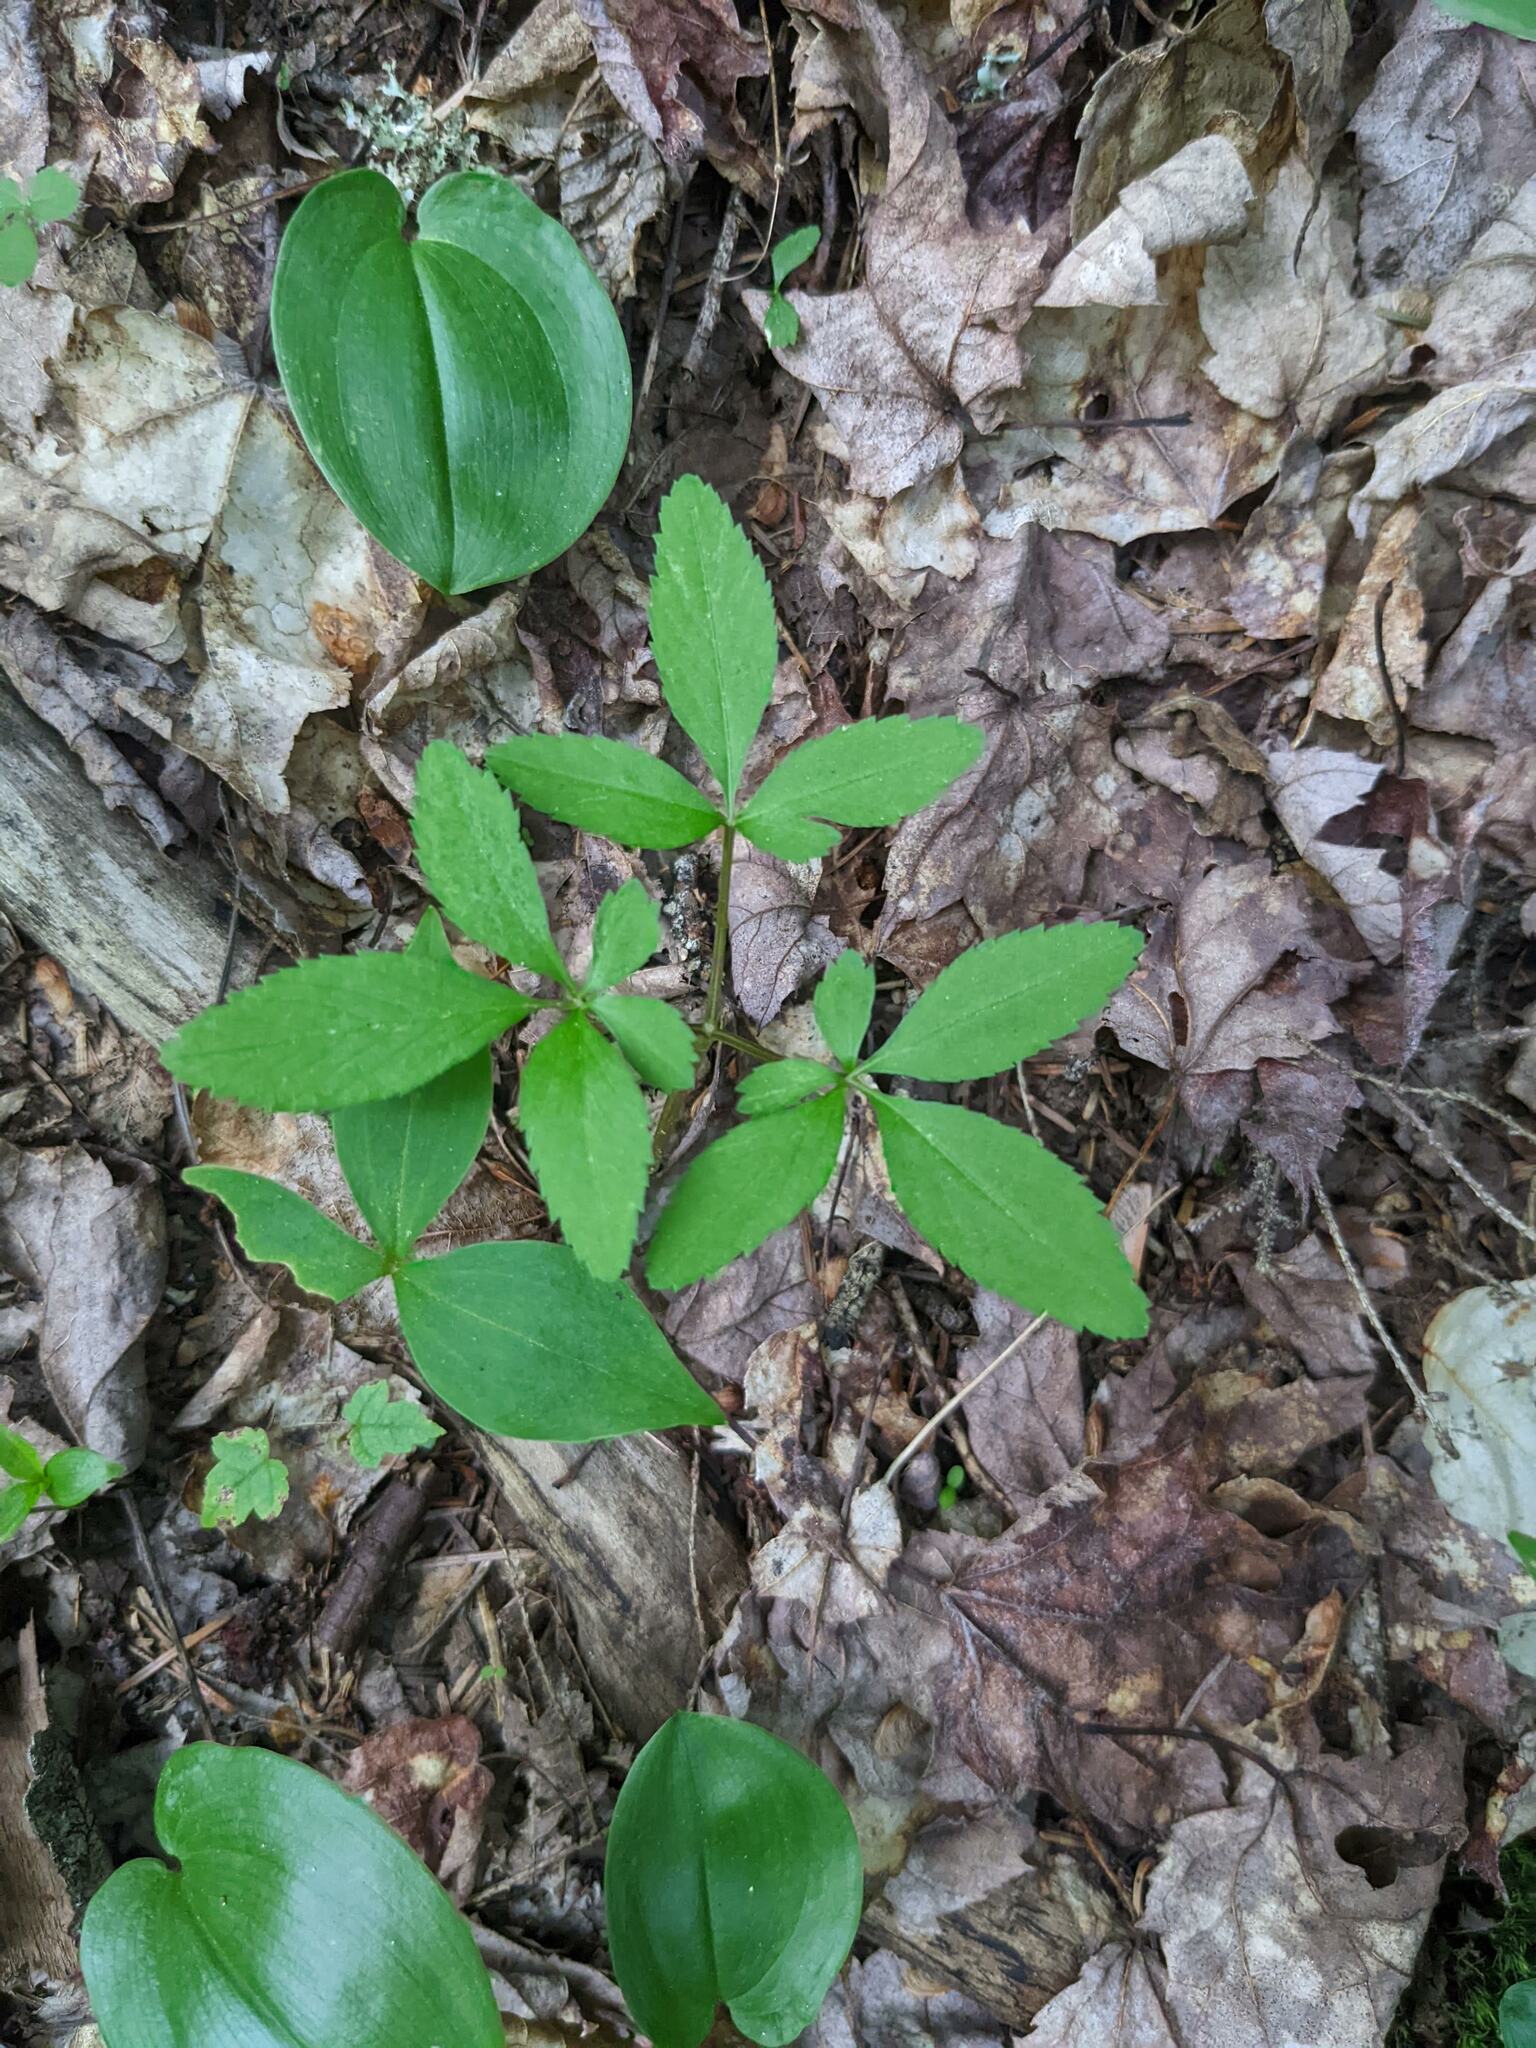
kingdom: Plantae
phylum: Tracheophyta
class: Magnoliopsida
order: Apiales
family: Araliaceae
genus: Panax
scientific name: Panax trifolius
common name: Dwarf ginseng
